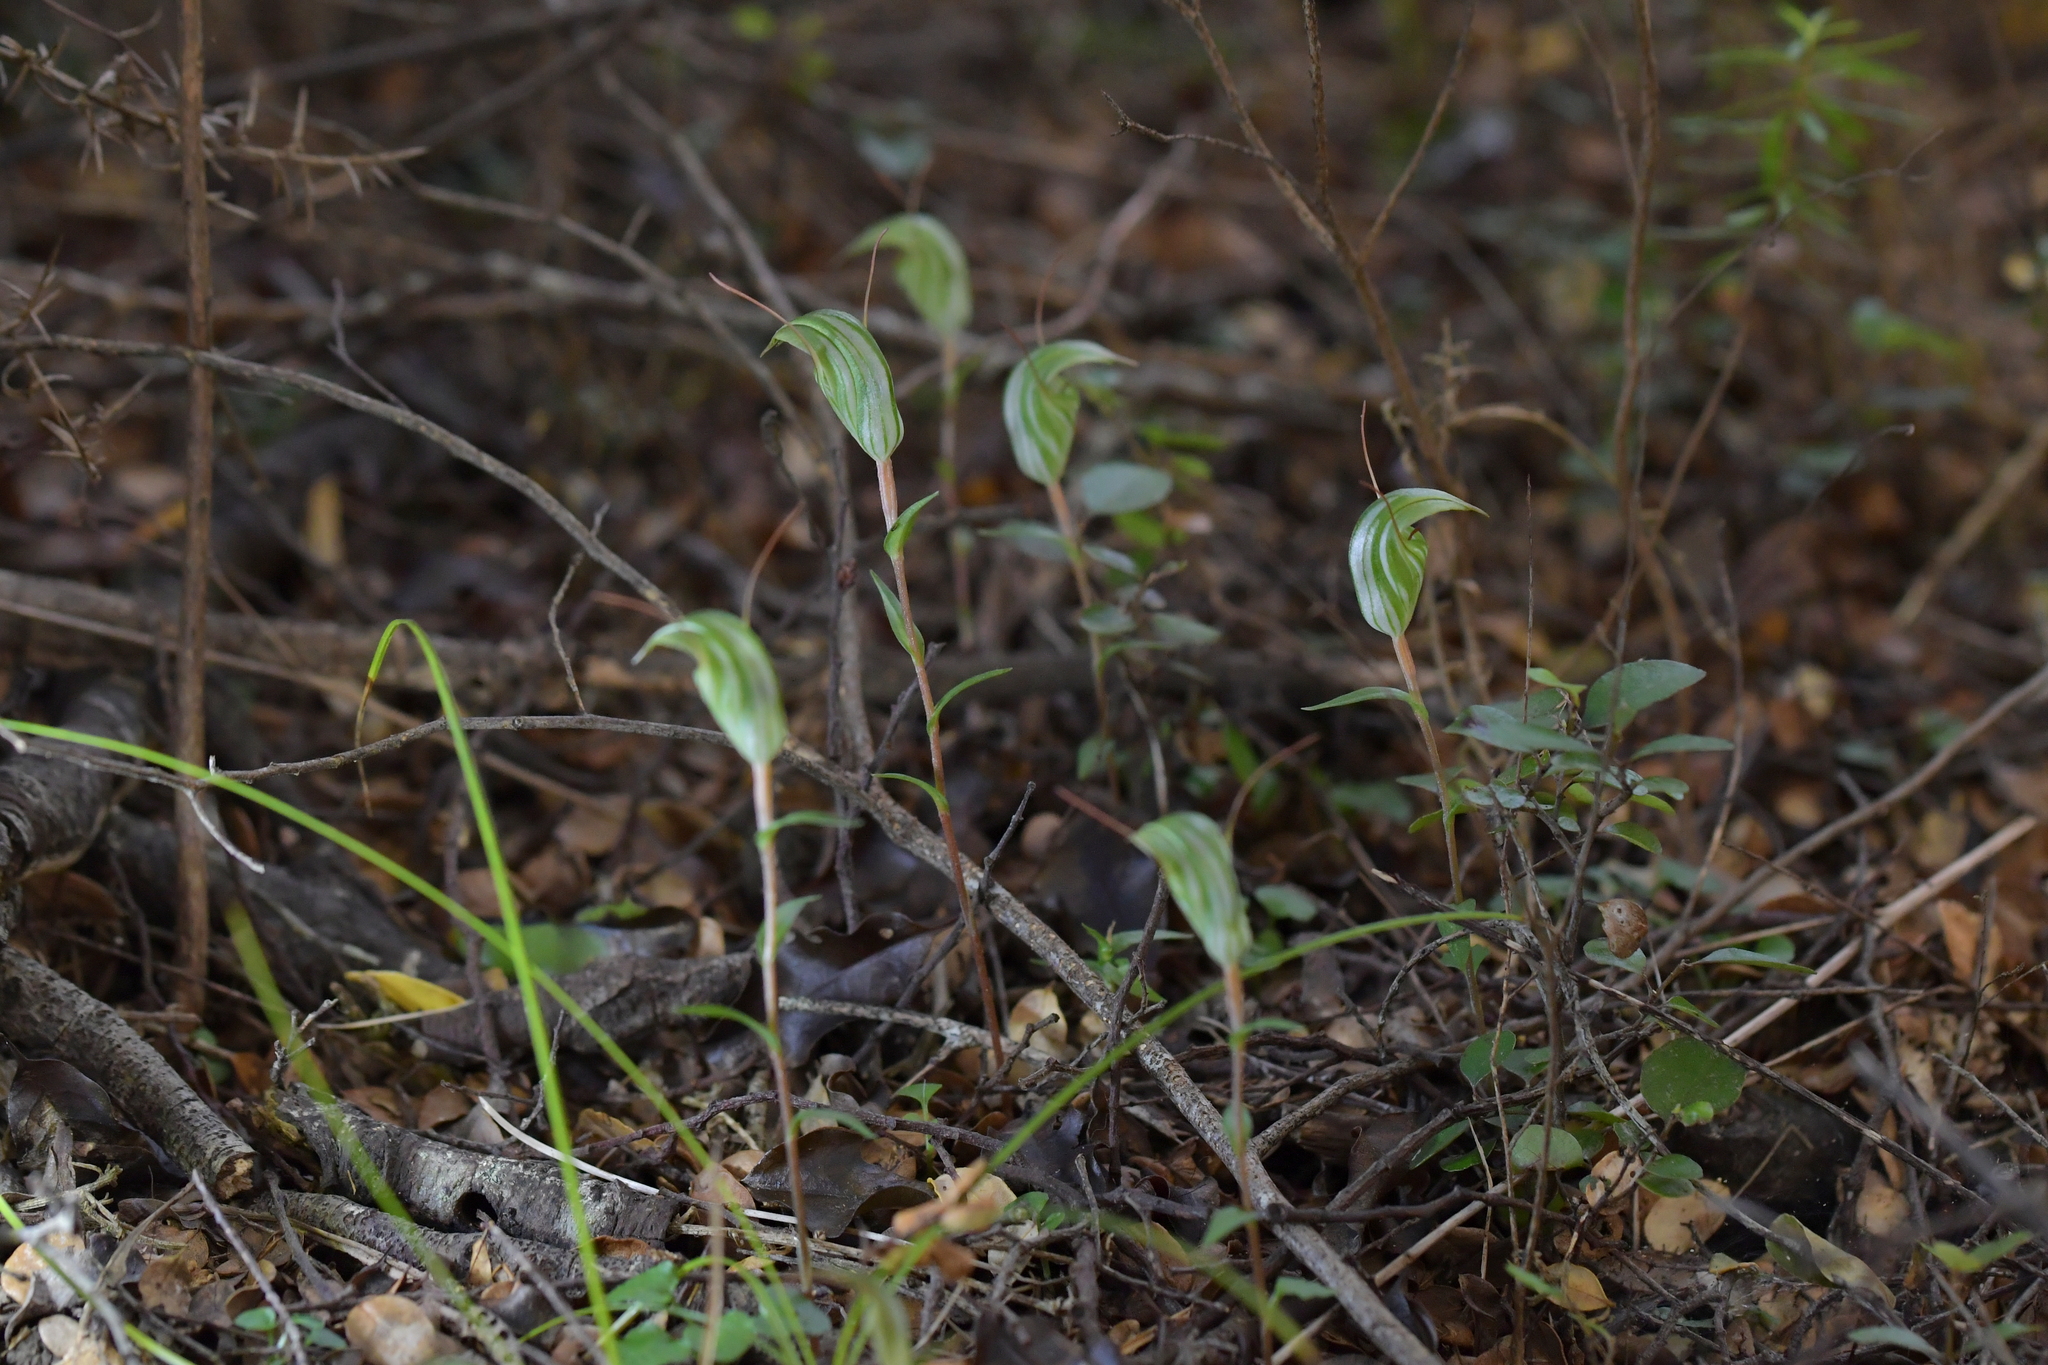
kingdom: Plantae
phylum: Tracheophyta
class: Liliopsida
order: Asparagales
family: Orchidaceae
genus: Pterostylis
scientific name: Pterostylis alobula
